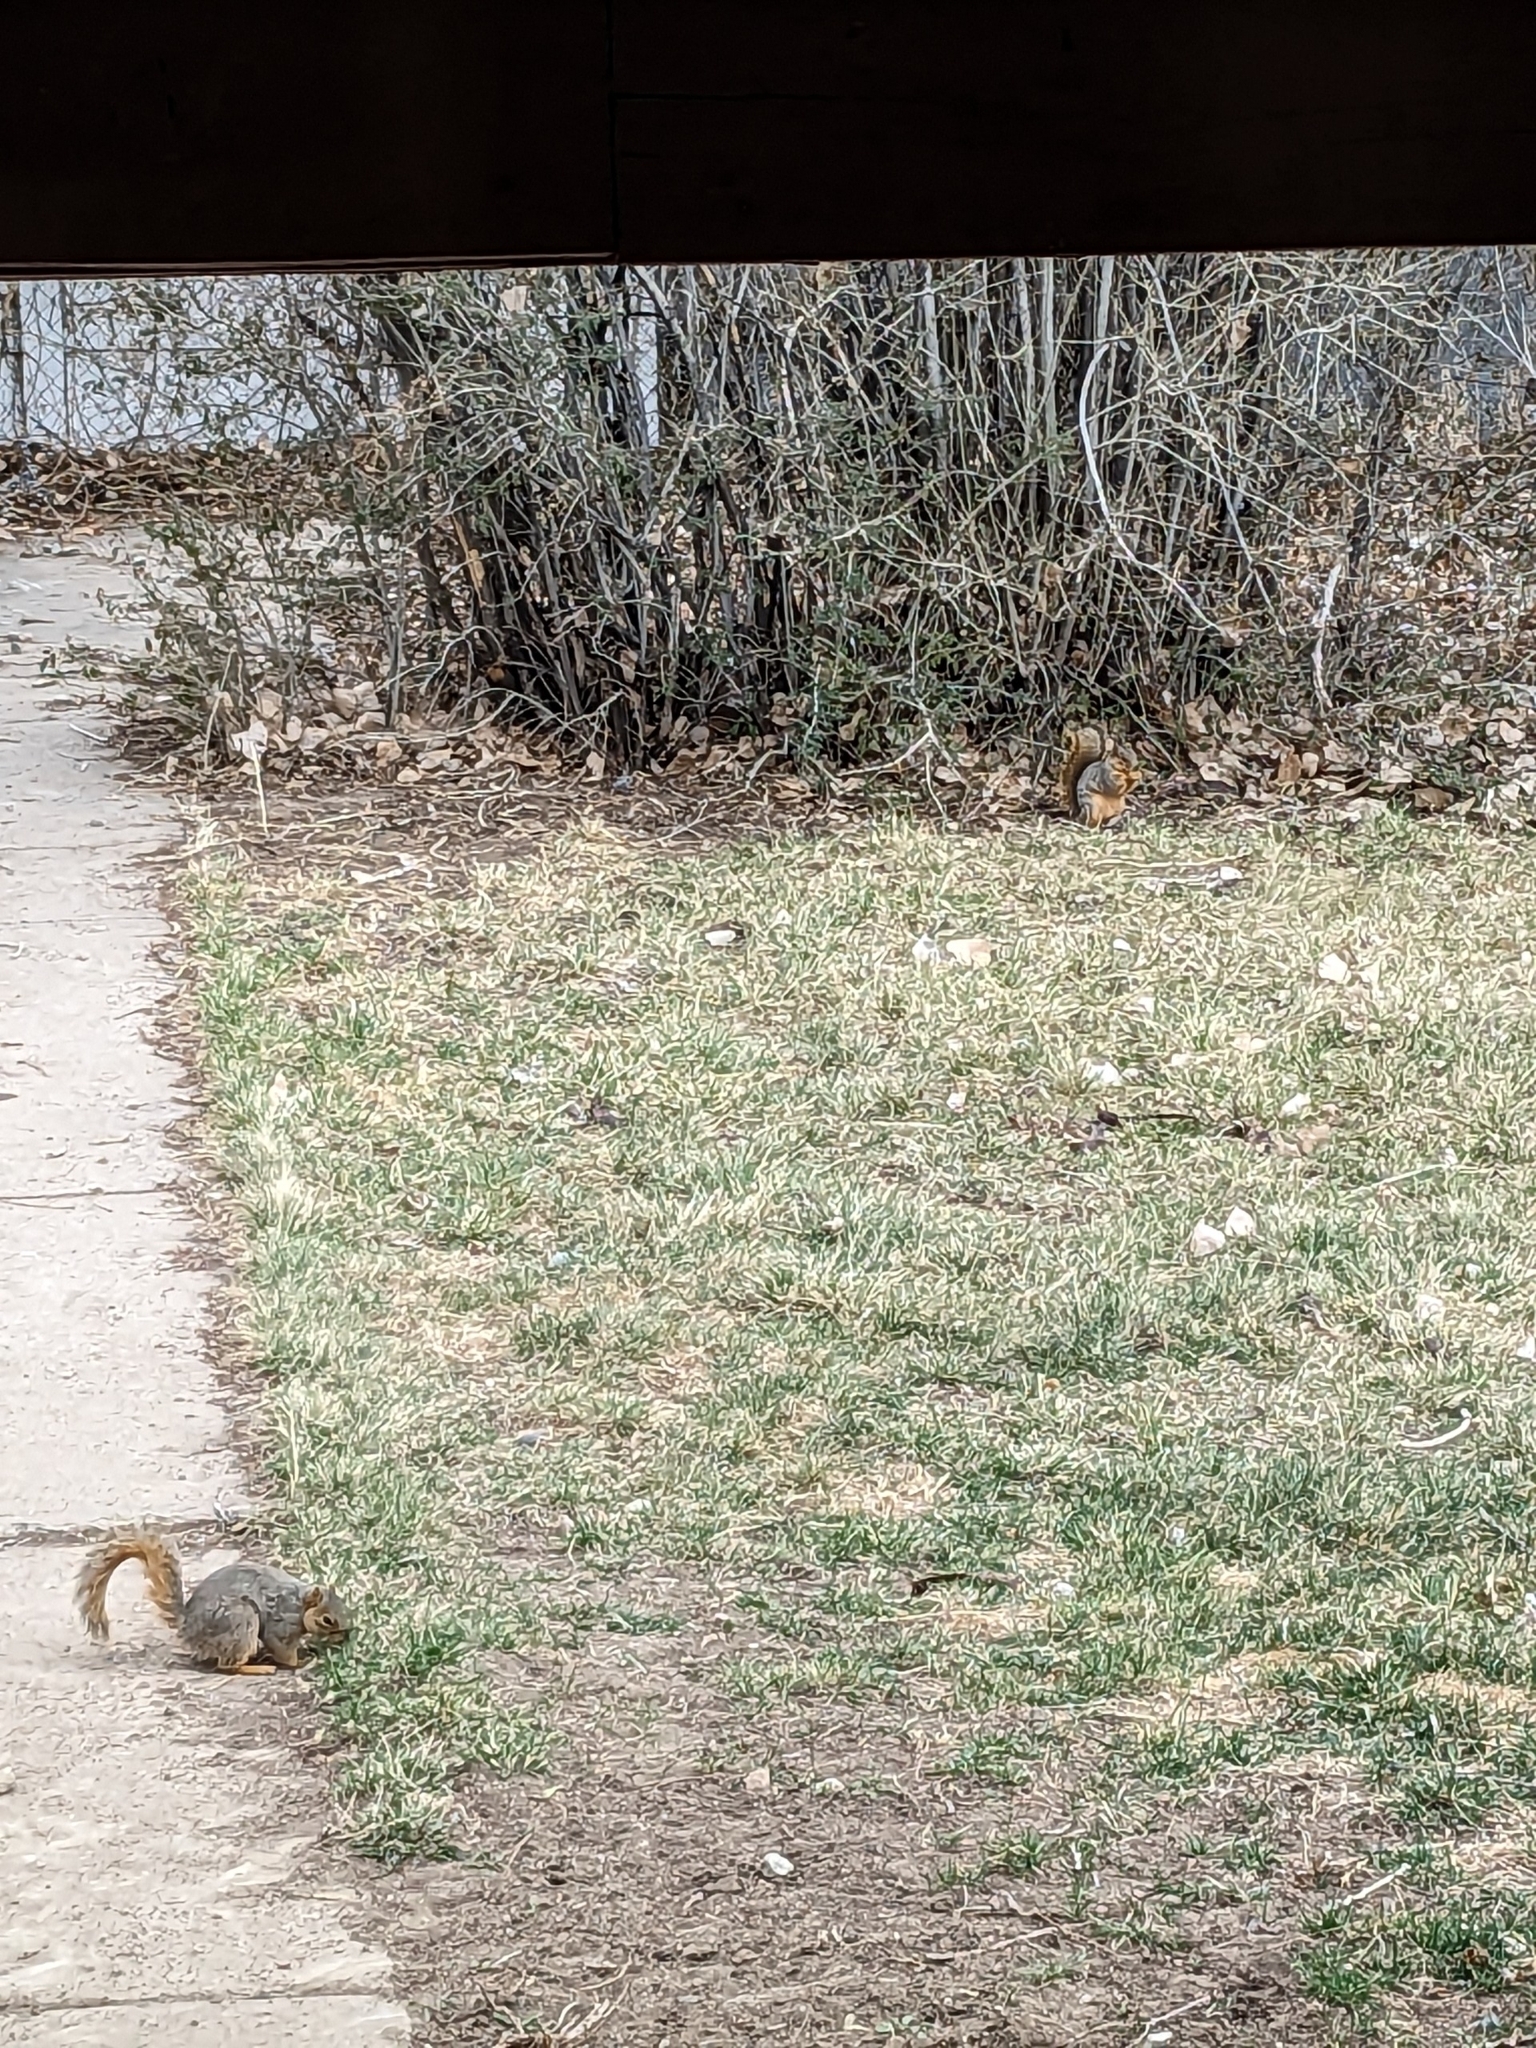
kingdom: Animalia
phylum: Chordata
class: Mammalia
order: Rodentia
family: Sciuridae
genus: Sciurus
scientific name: Sciurus niger
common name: Fox squirrel
